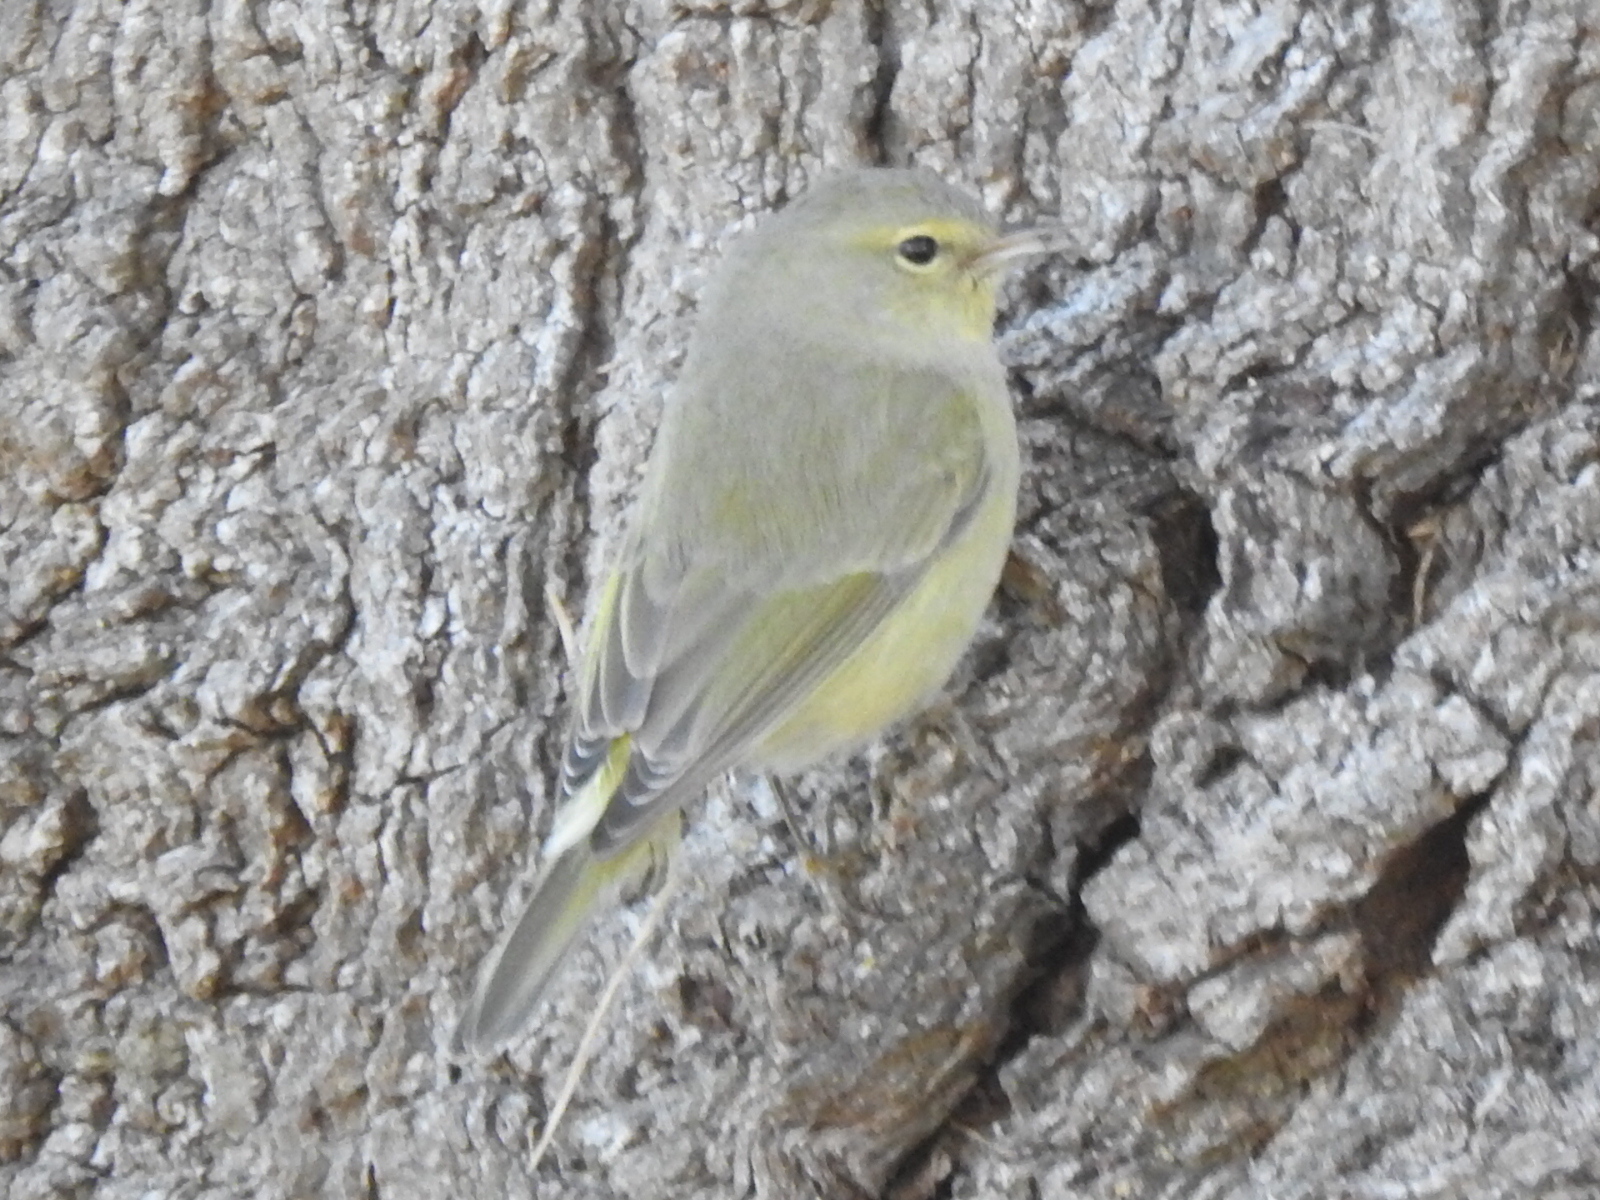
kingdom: Animalia
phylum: Chordata
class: Aves
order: Passeriformes
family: Parulidae
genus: Leiothlypis
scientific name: Leiothlypis celata
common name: Orange-crowned warbler
